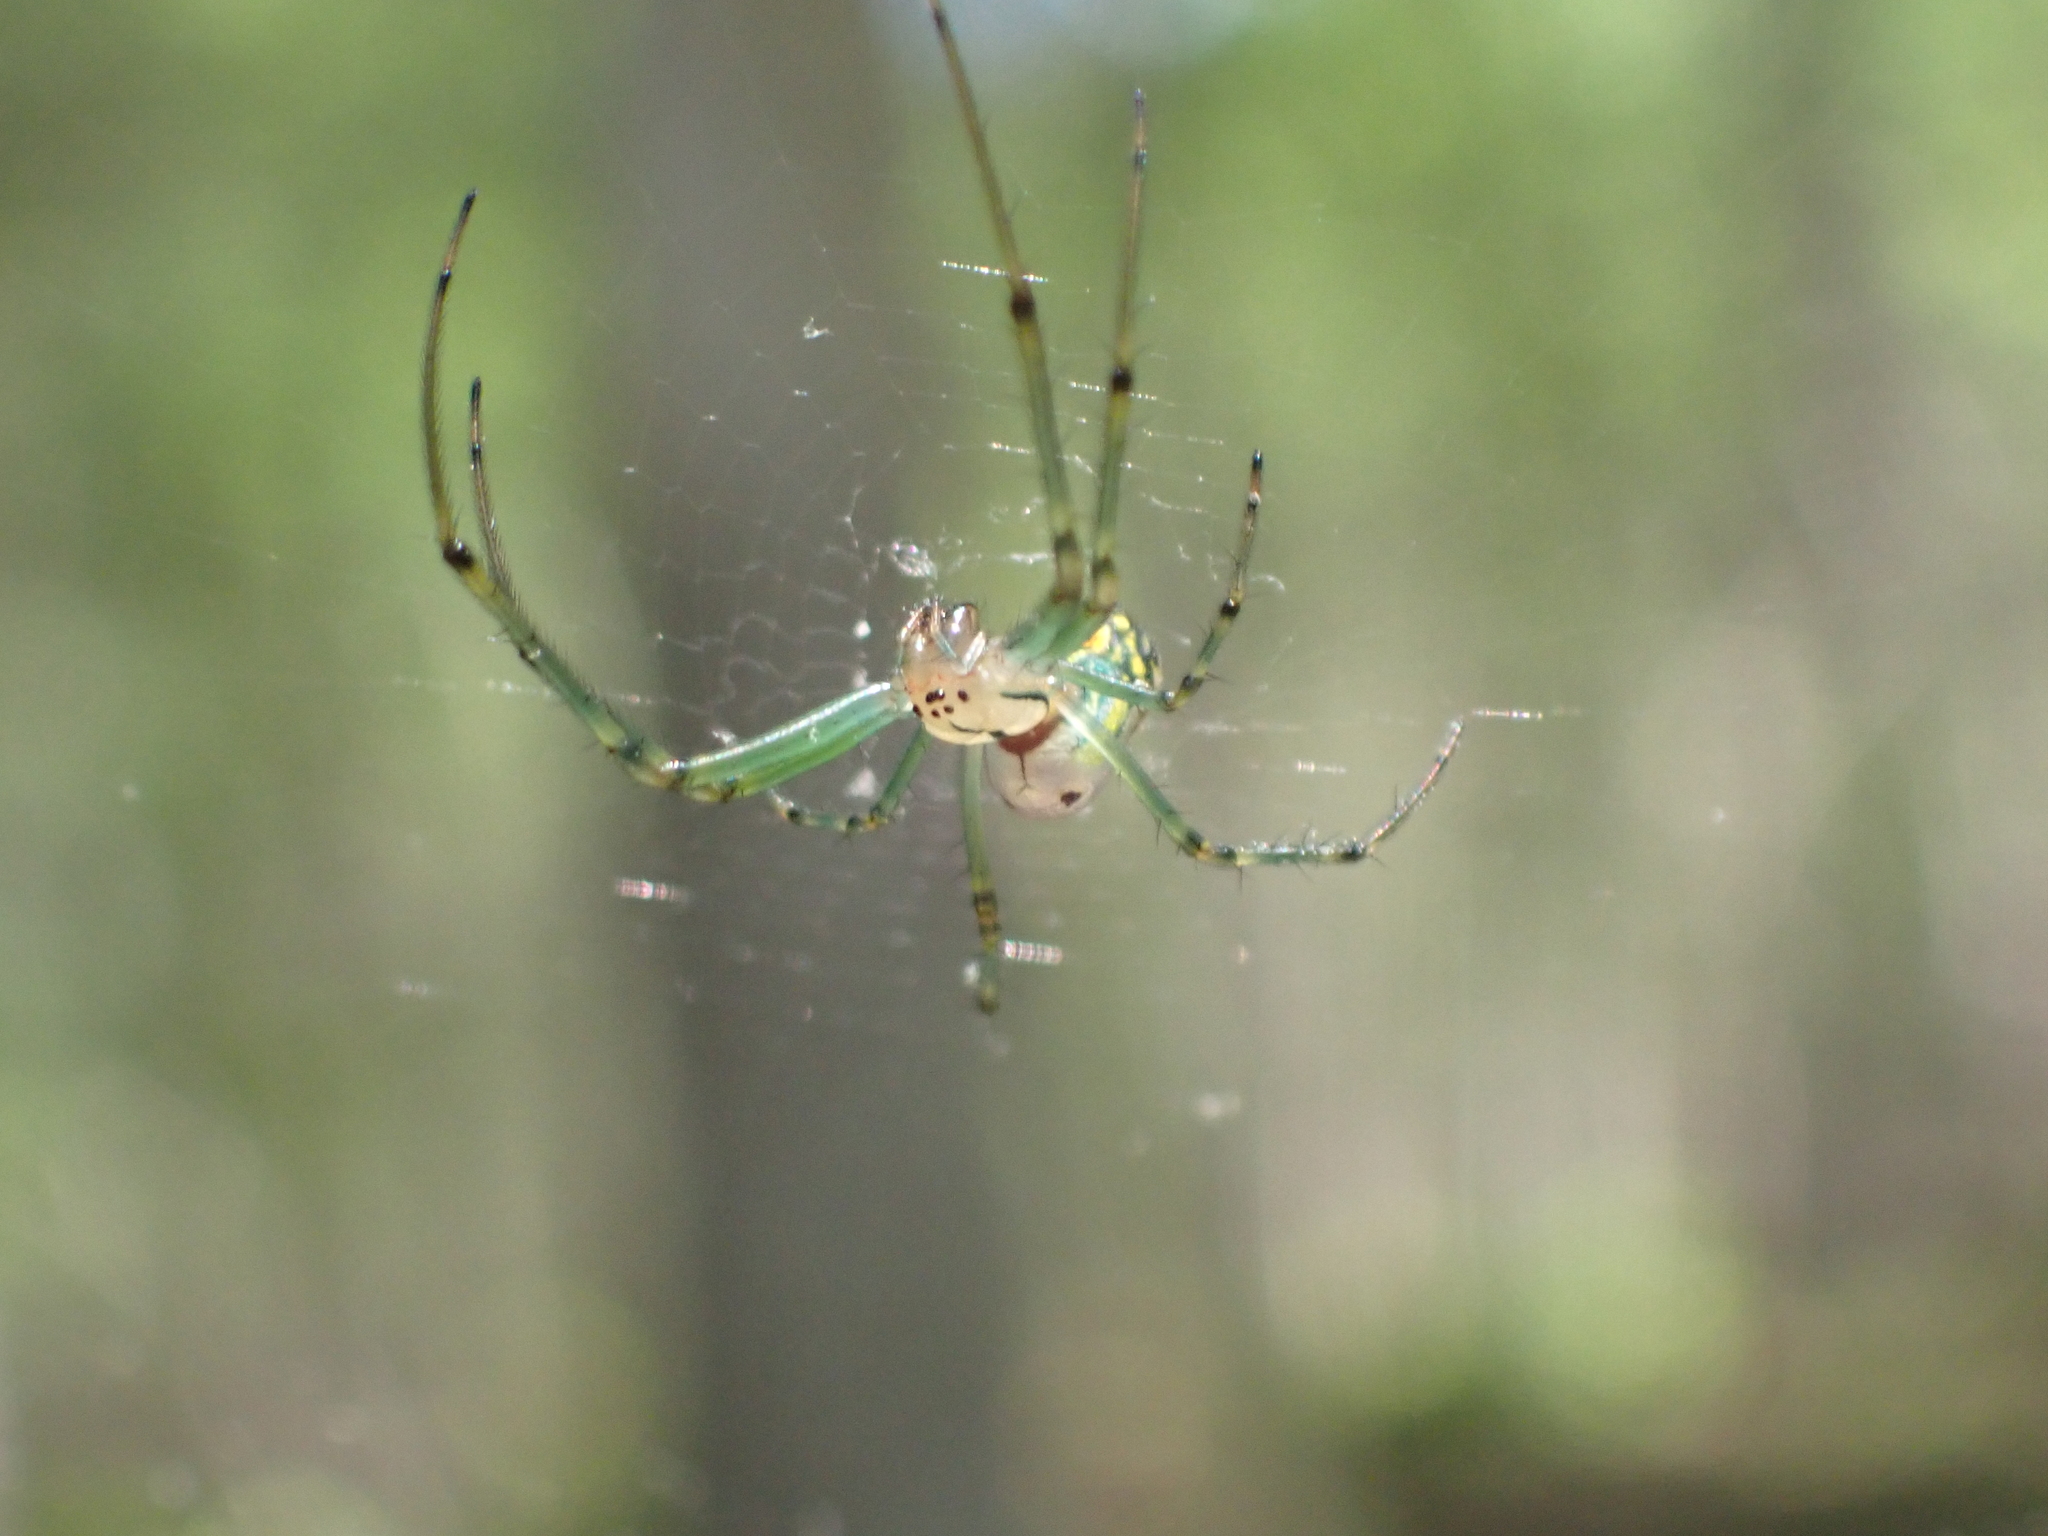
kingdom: Animalia
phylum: Arthropoda
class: Arachnida
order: Araneae
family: Tetragnathidae
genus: Leucauge
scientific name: Leucauge venusta
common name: Longjawed orb weavers
